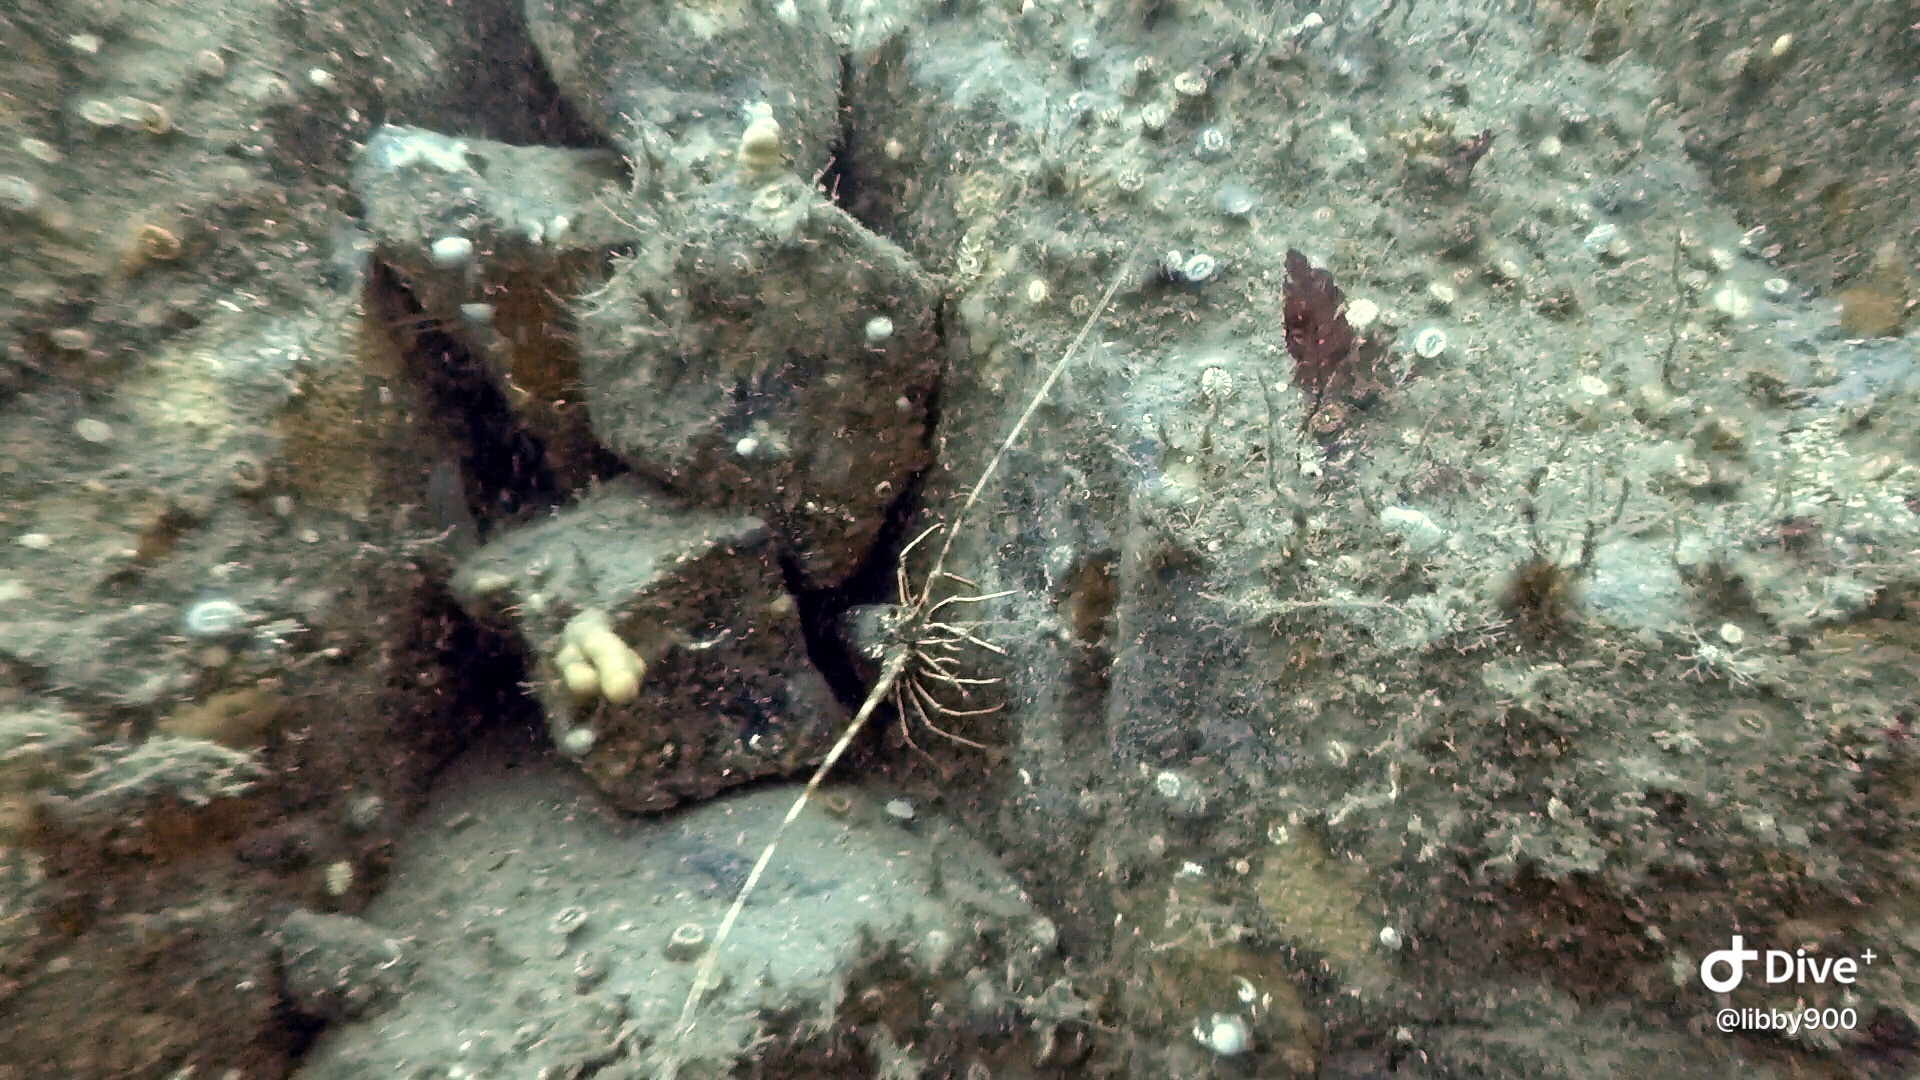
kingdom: Animalia
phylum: Arthropoda
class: Malacostraca
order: Decapoda
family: Palinuridae
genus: Palinurus
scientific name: Palinurus elephas
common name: European spiny lobster
